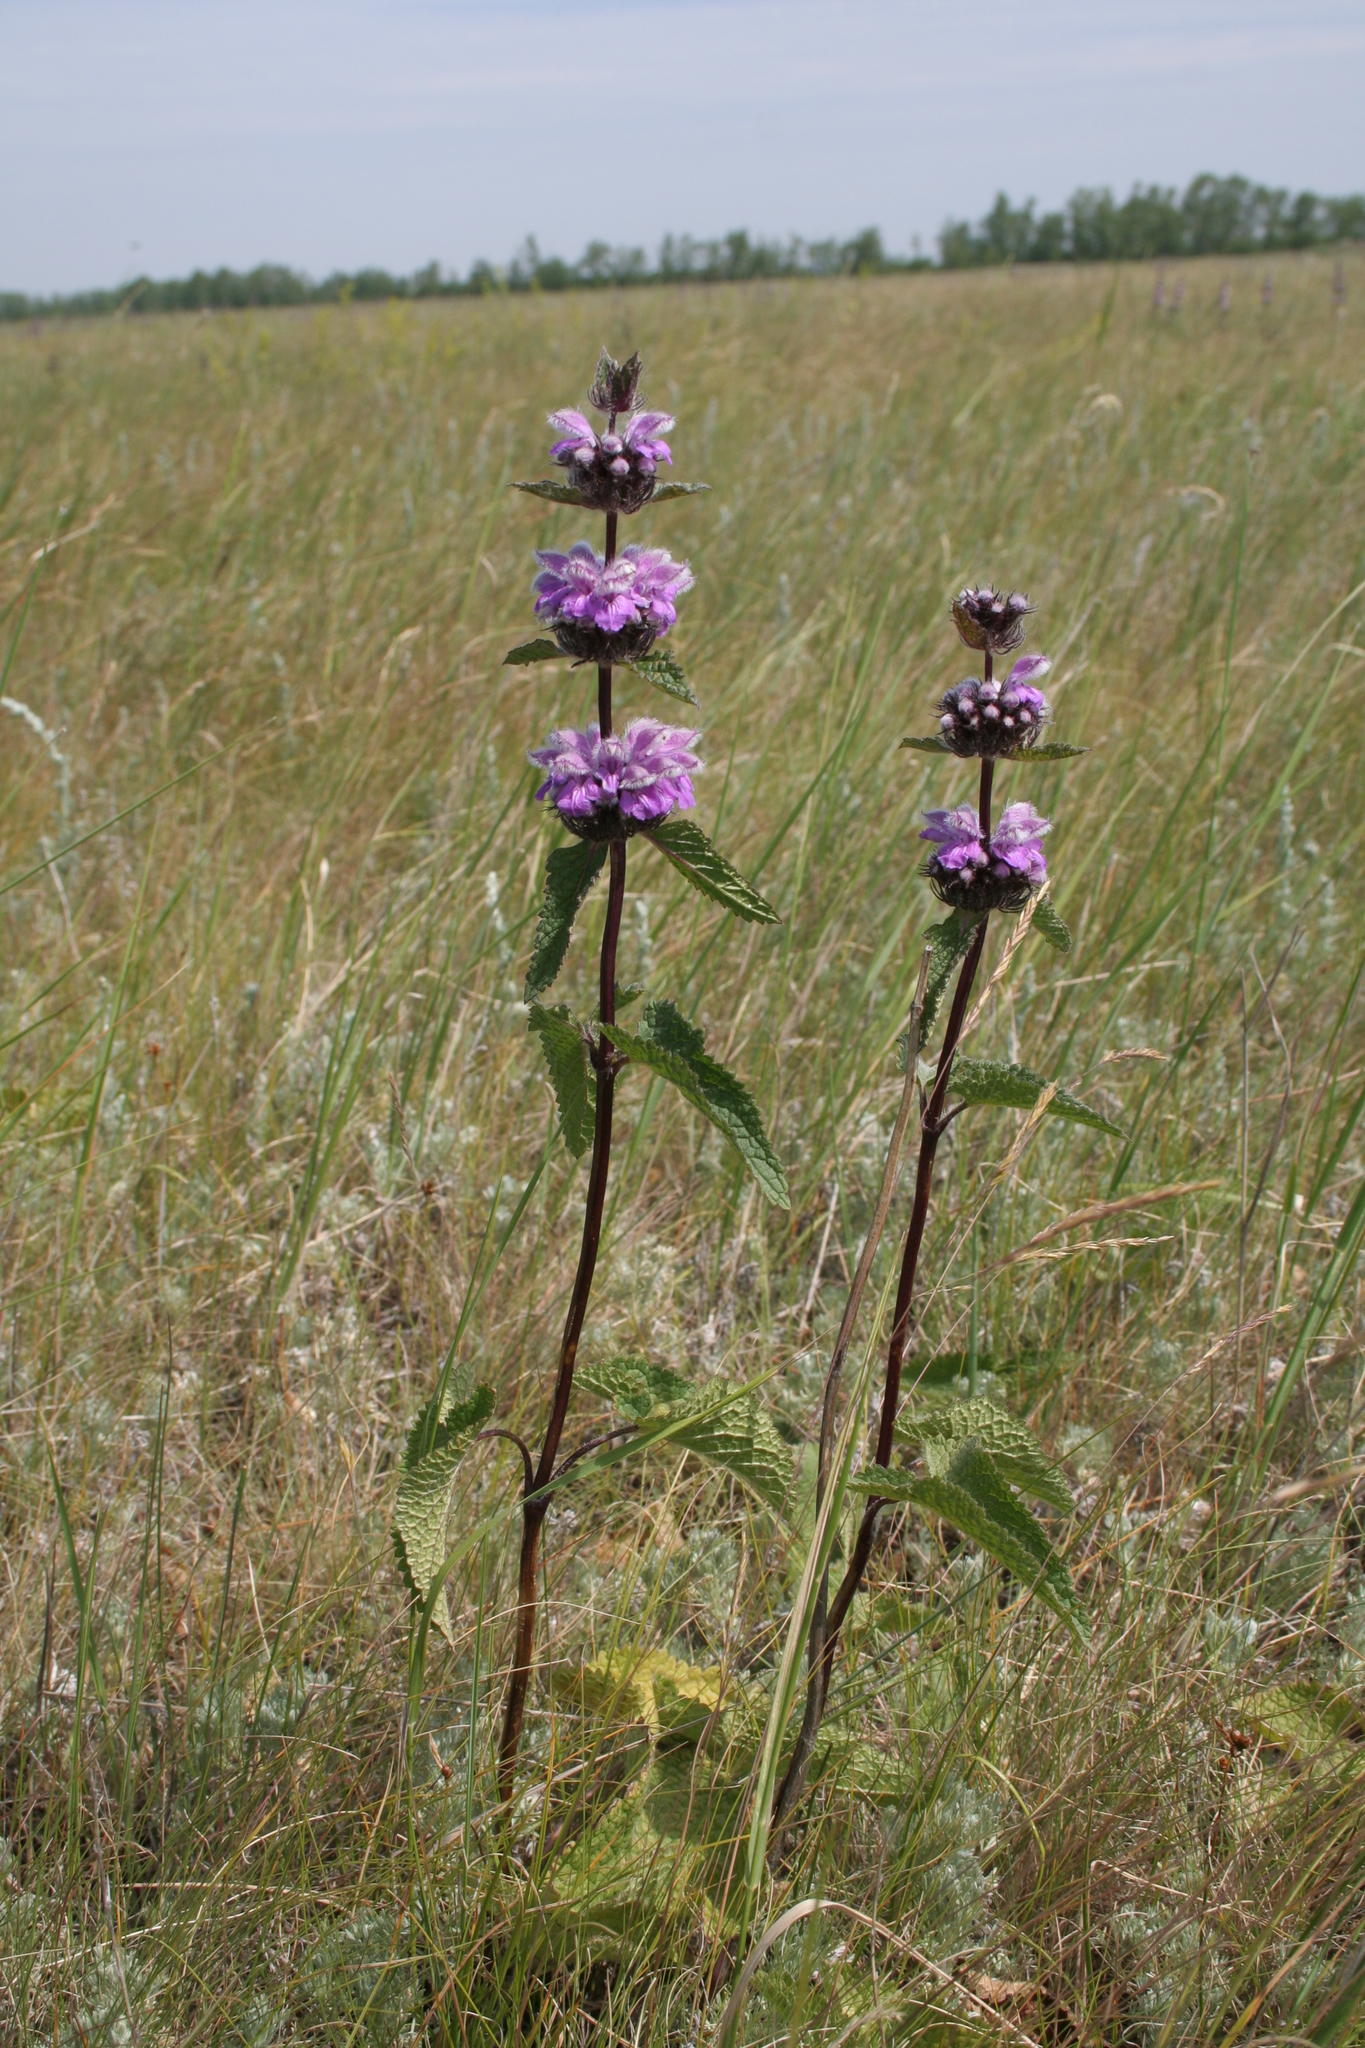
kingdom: Plantae
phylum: Tracheophyta
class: Magnoliopsida
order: Lamiales
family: Lamiaceae
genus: Phlomoides
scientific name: Phlomoides tuberosa
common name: Tuberous jerusalem sage
